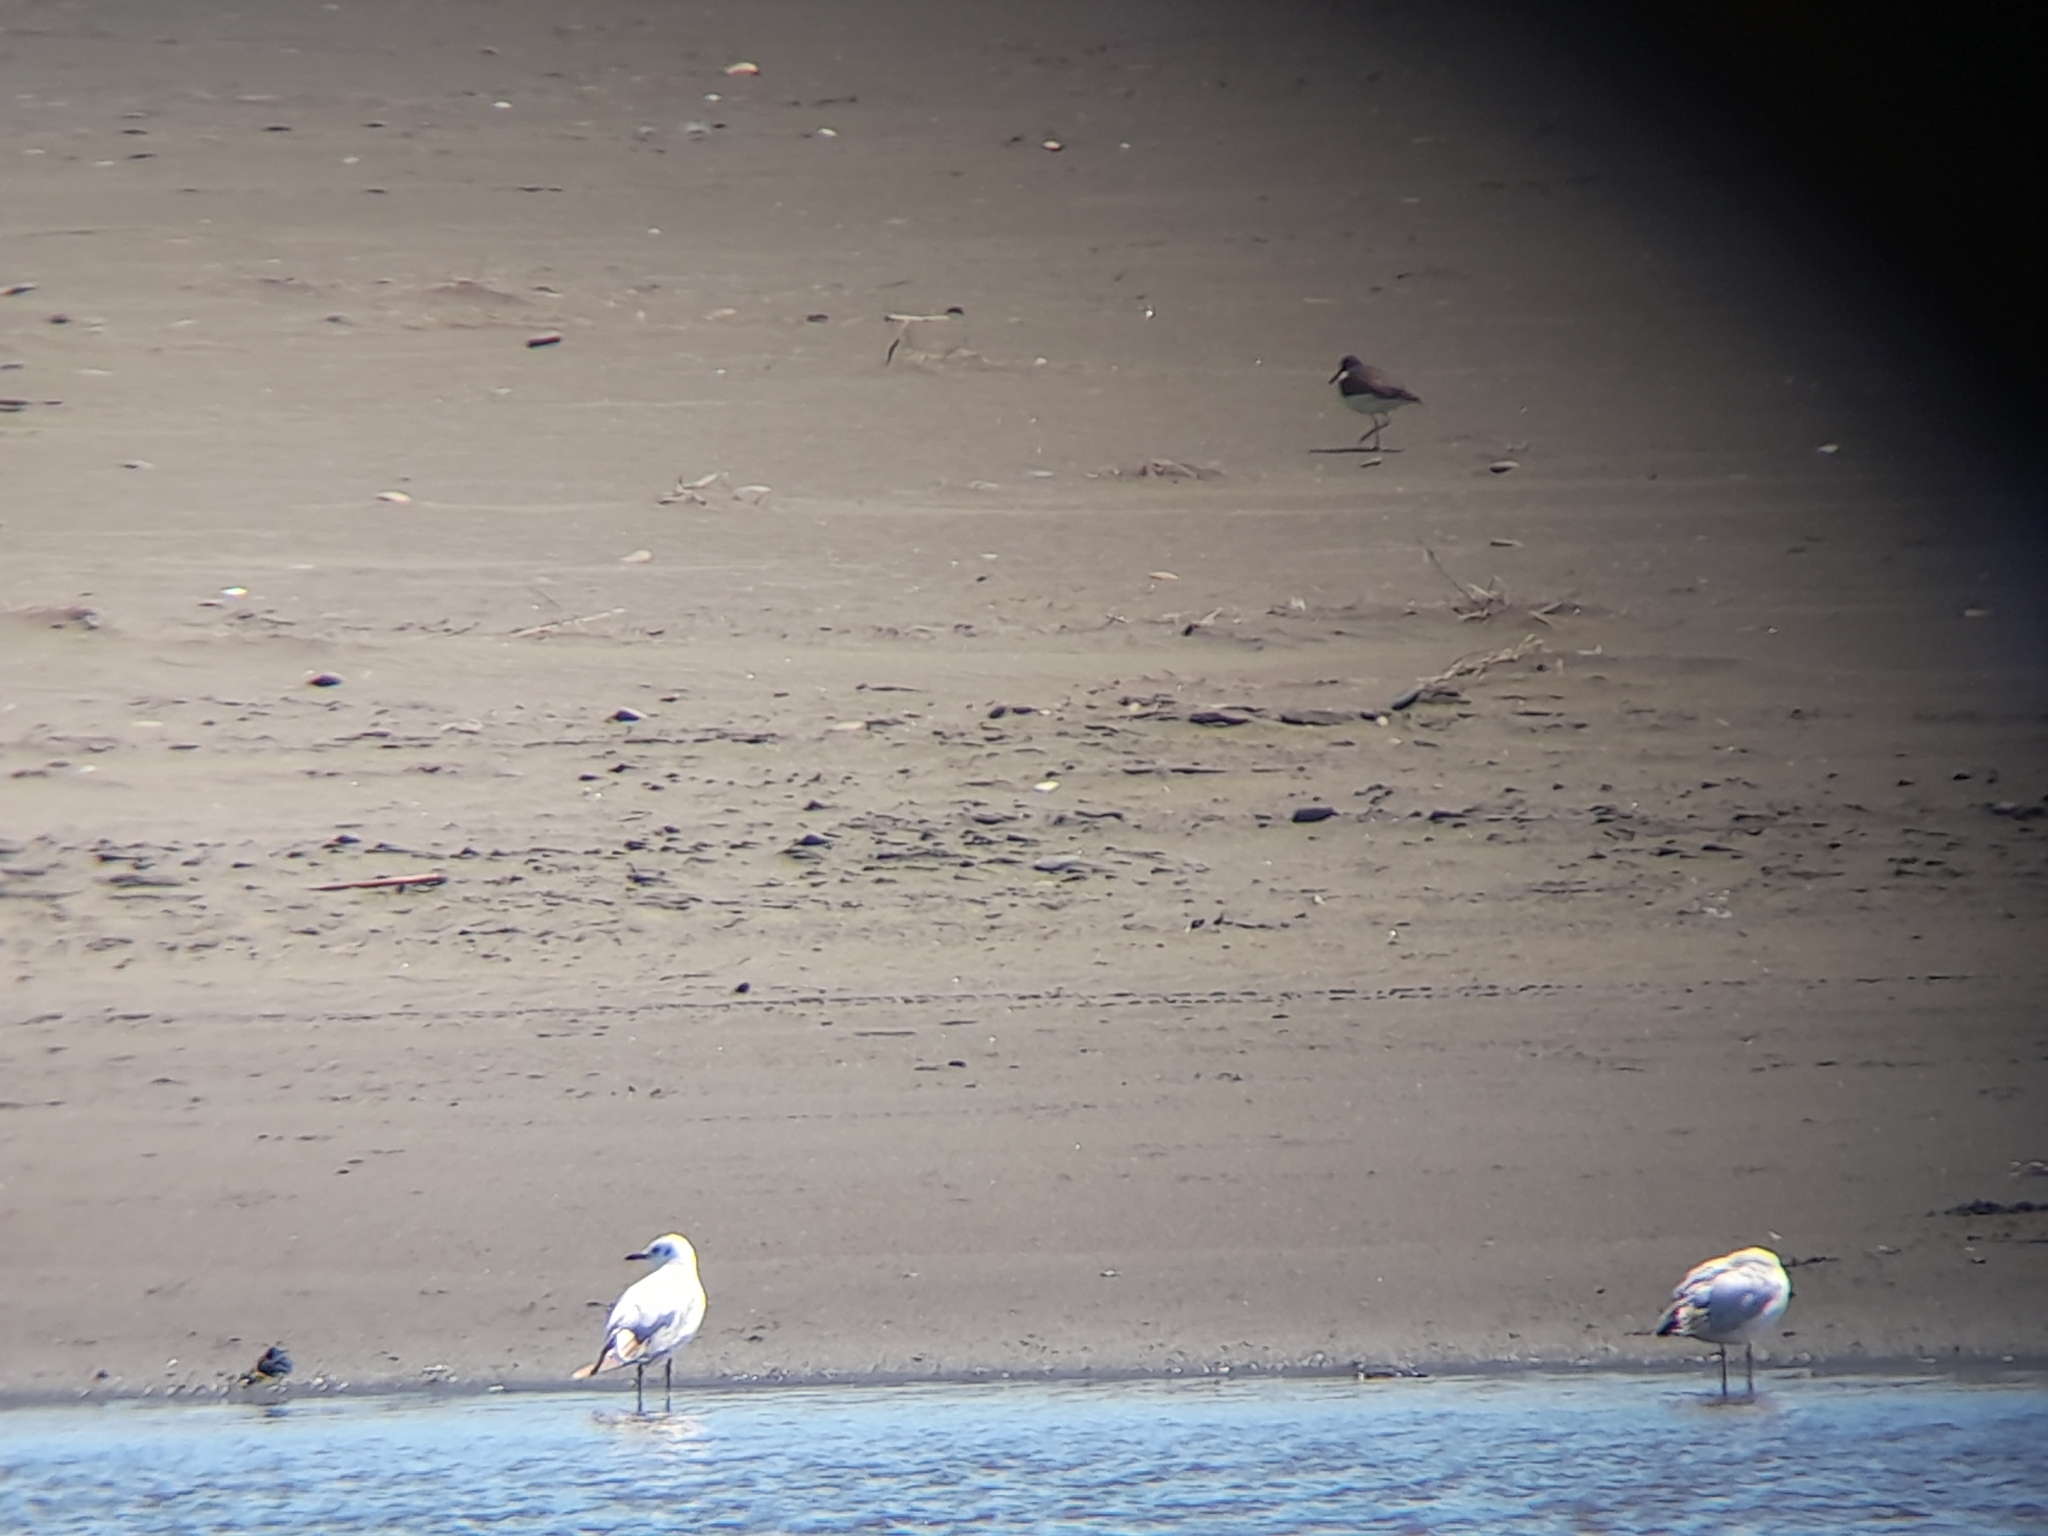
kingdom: Animalia
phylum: Chordata
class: Aves
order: Charadriiformes
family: Haematopodidae
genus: Haematopus
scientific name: Haematopus palliatus
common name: American oystercatcher
